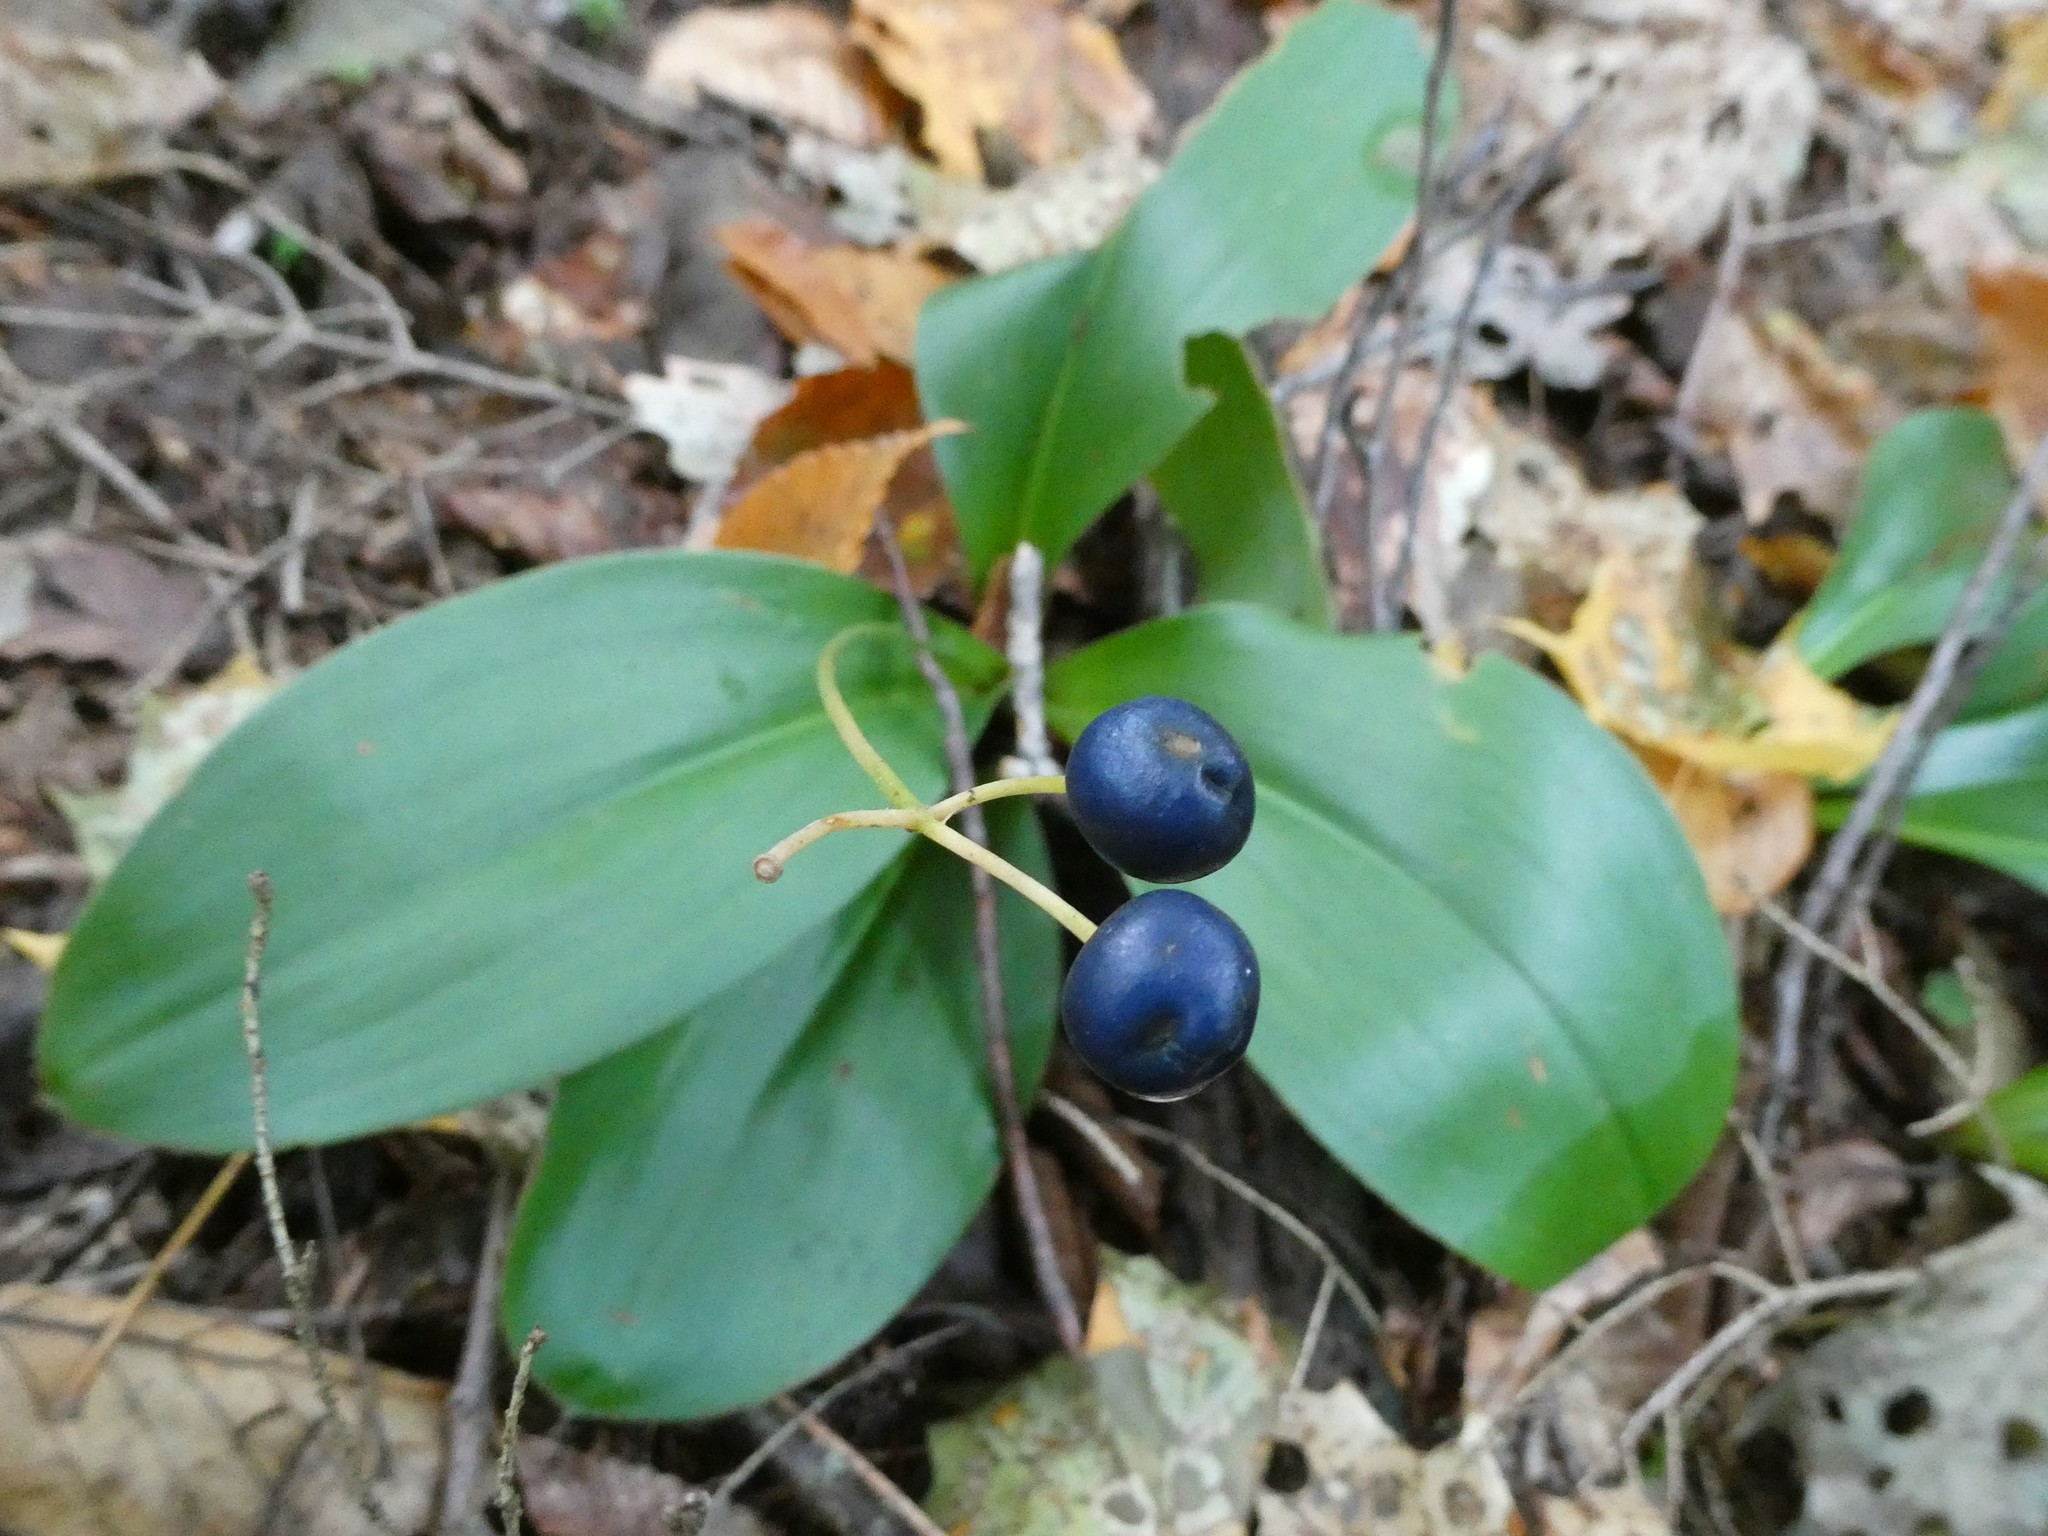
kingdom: Plantae
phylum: Tracheophyta
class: Liliopsida
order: Liliales
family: Liliaceae
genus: Clintonia
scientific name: Clintonia borealis
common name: Yellow clintonia
